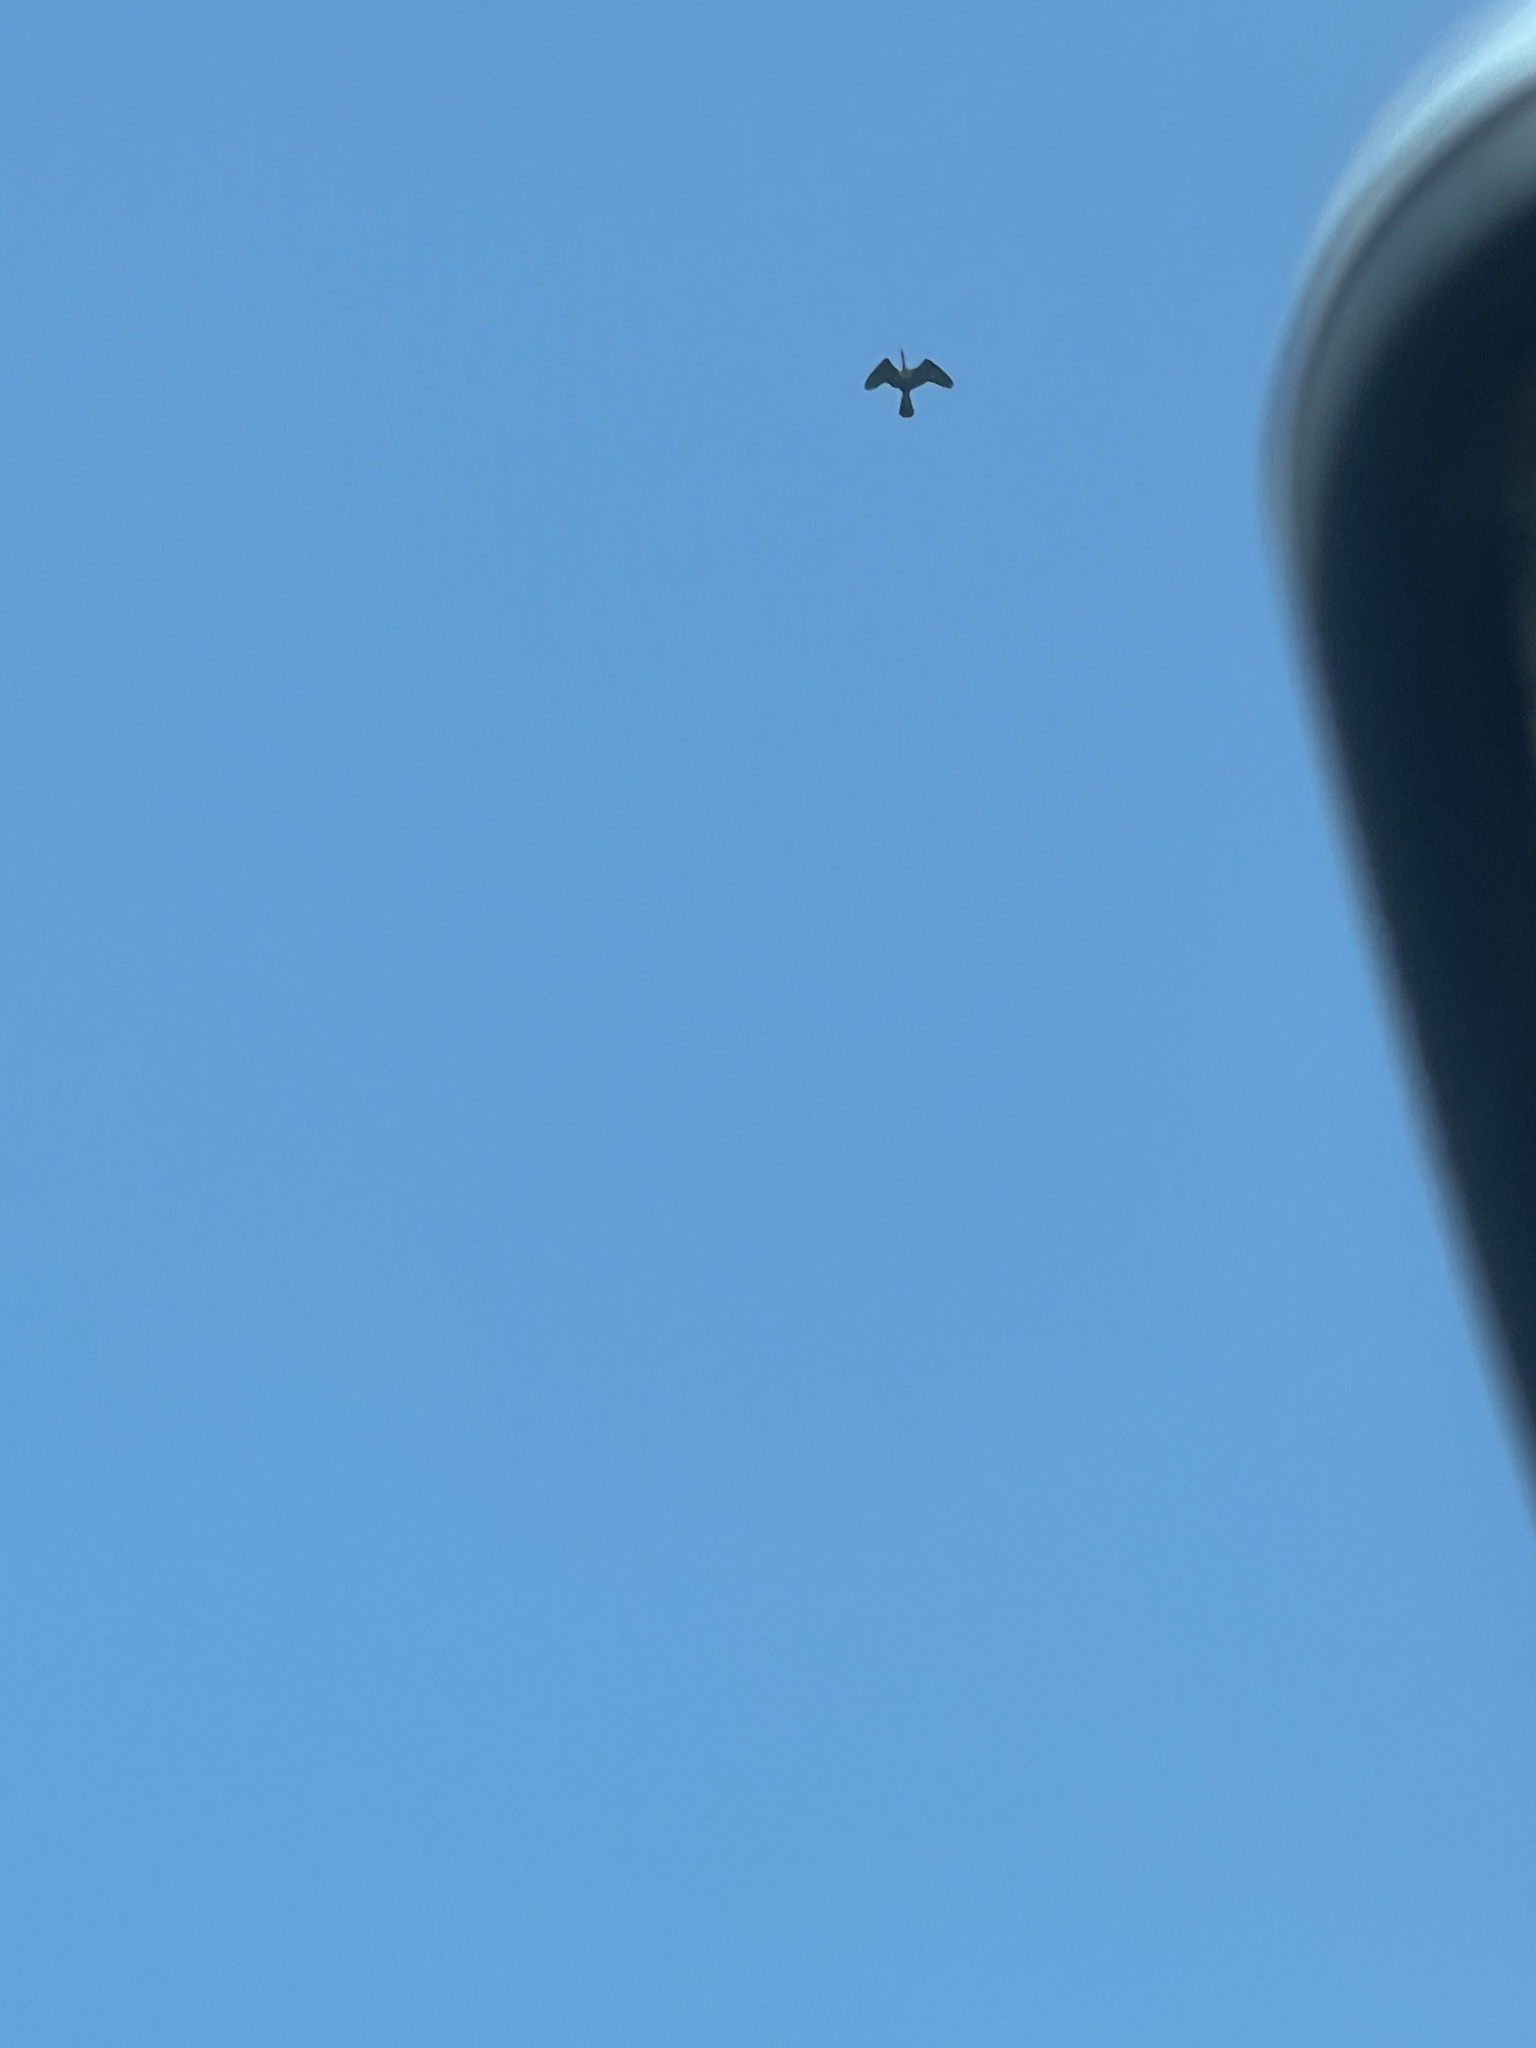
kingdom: Animalia
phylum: Chordata
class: Aves
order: Suliformes
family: Anhingidae
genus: Anhinga
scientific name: Anhinga anhinga
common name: Anhinga
